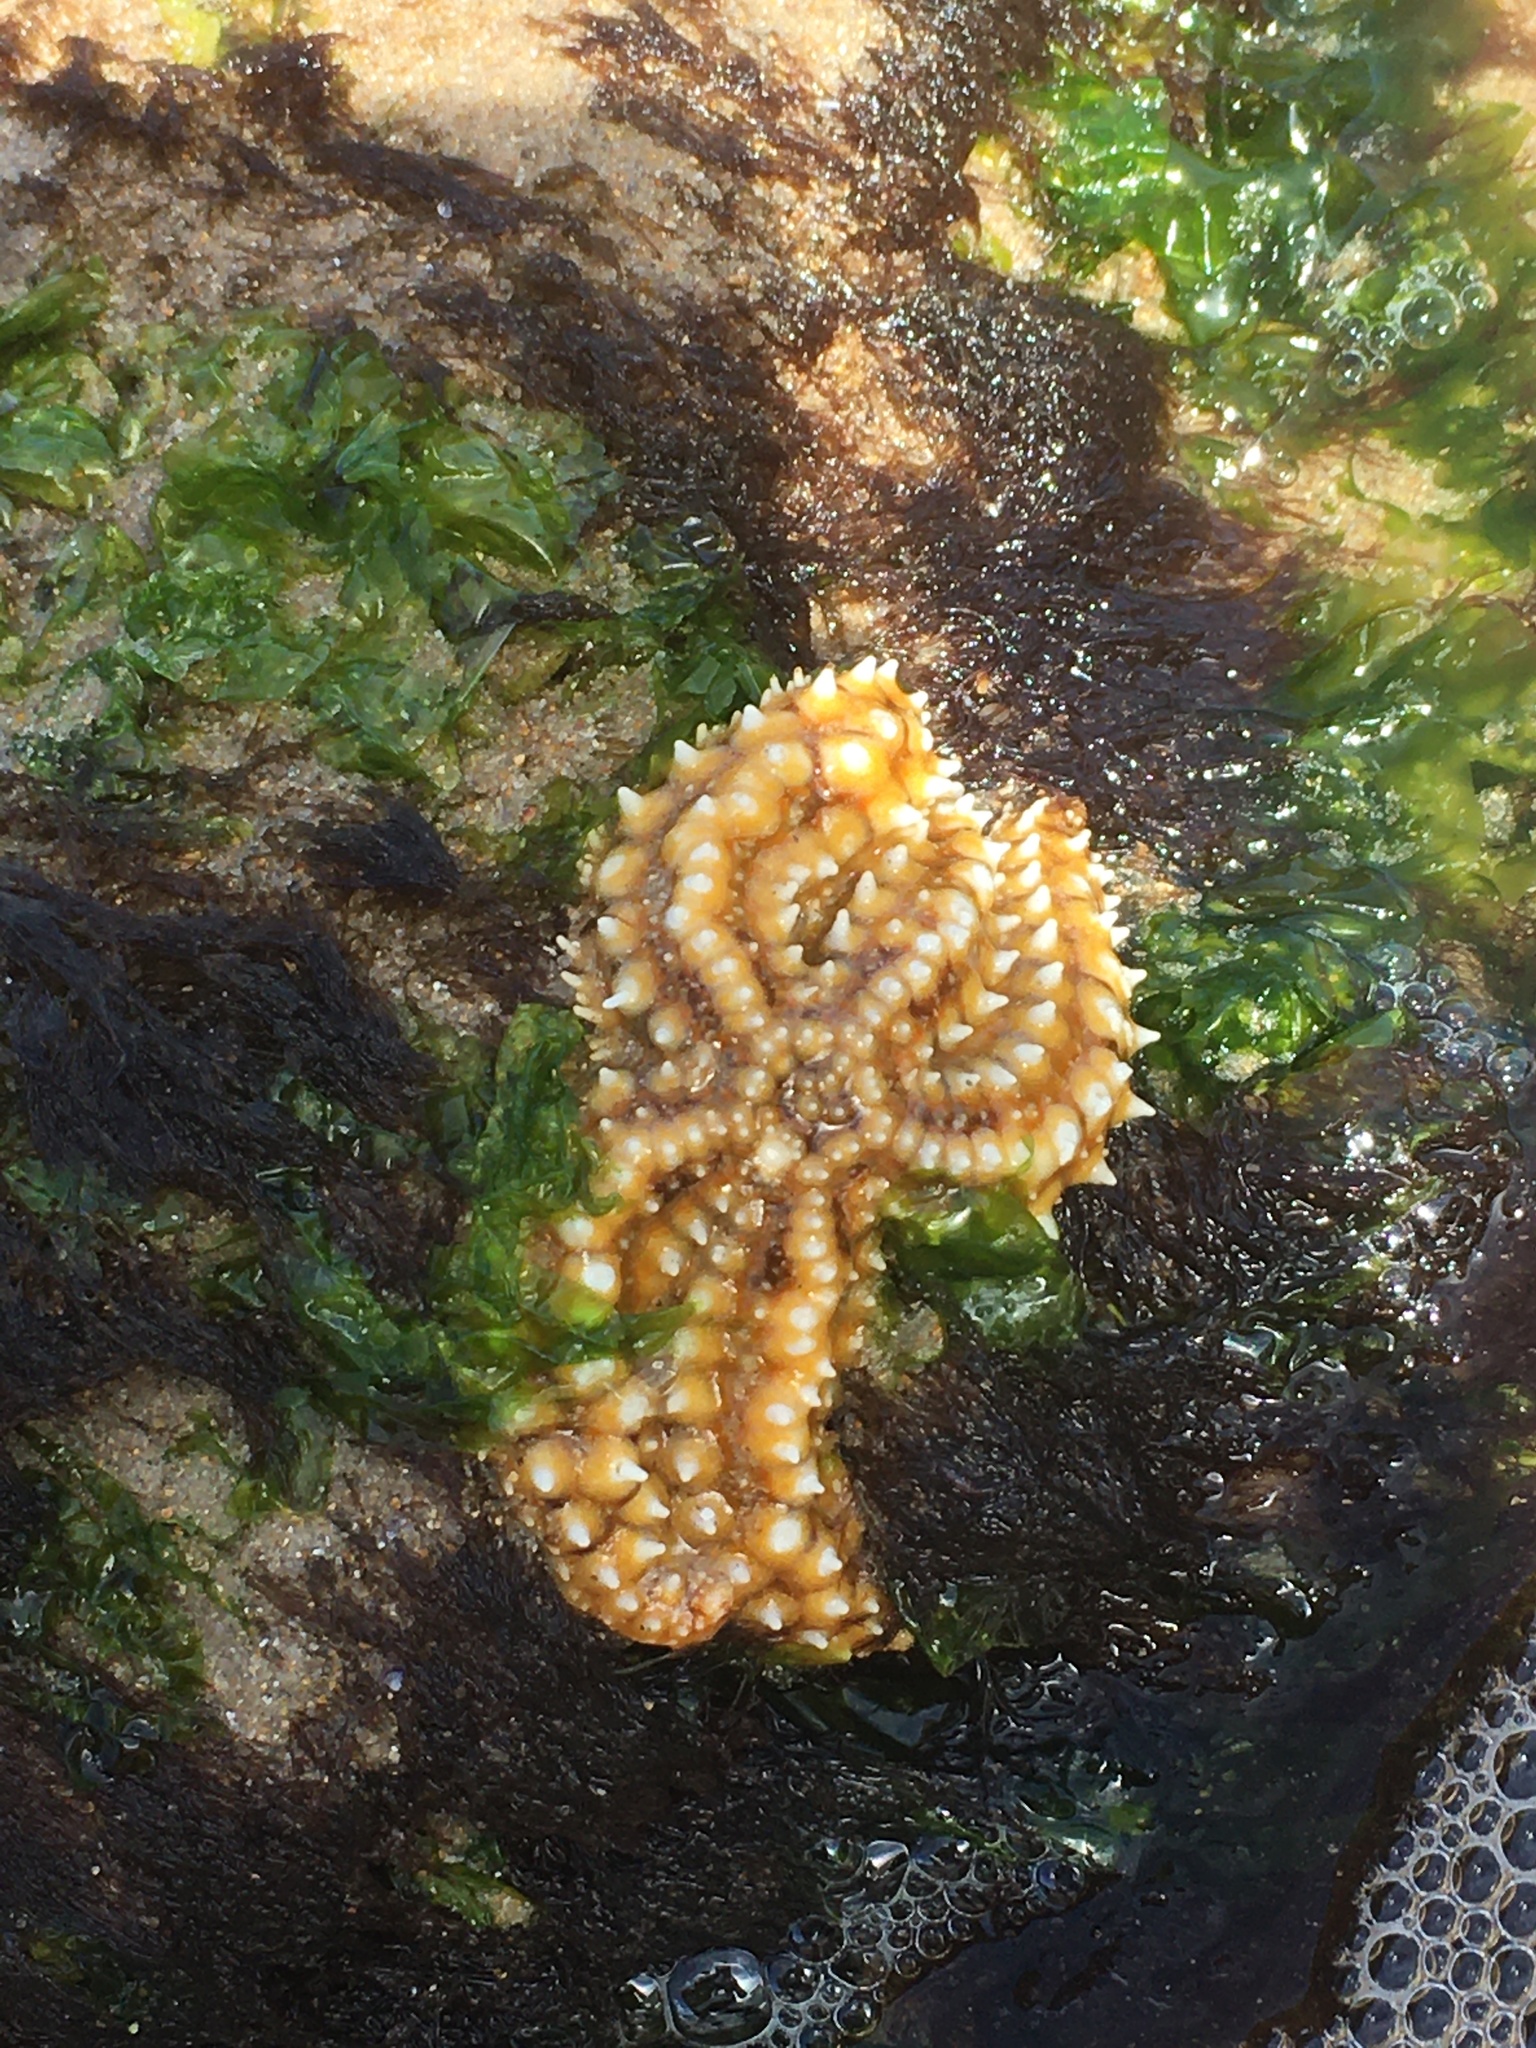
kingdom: Animalia
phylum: Echinodermata
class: Asteroidea
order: Forcipulatida
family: Asteriidae
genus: Marthasterias
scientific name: Marthasterias glacialis
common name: Spiny starfish
